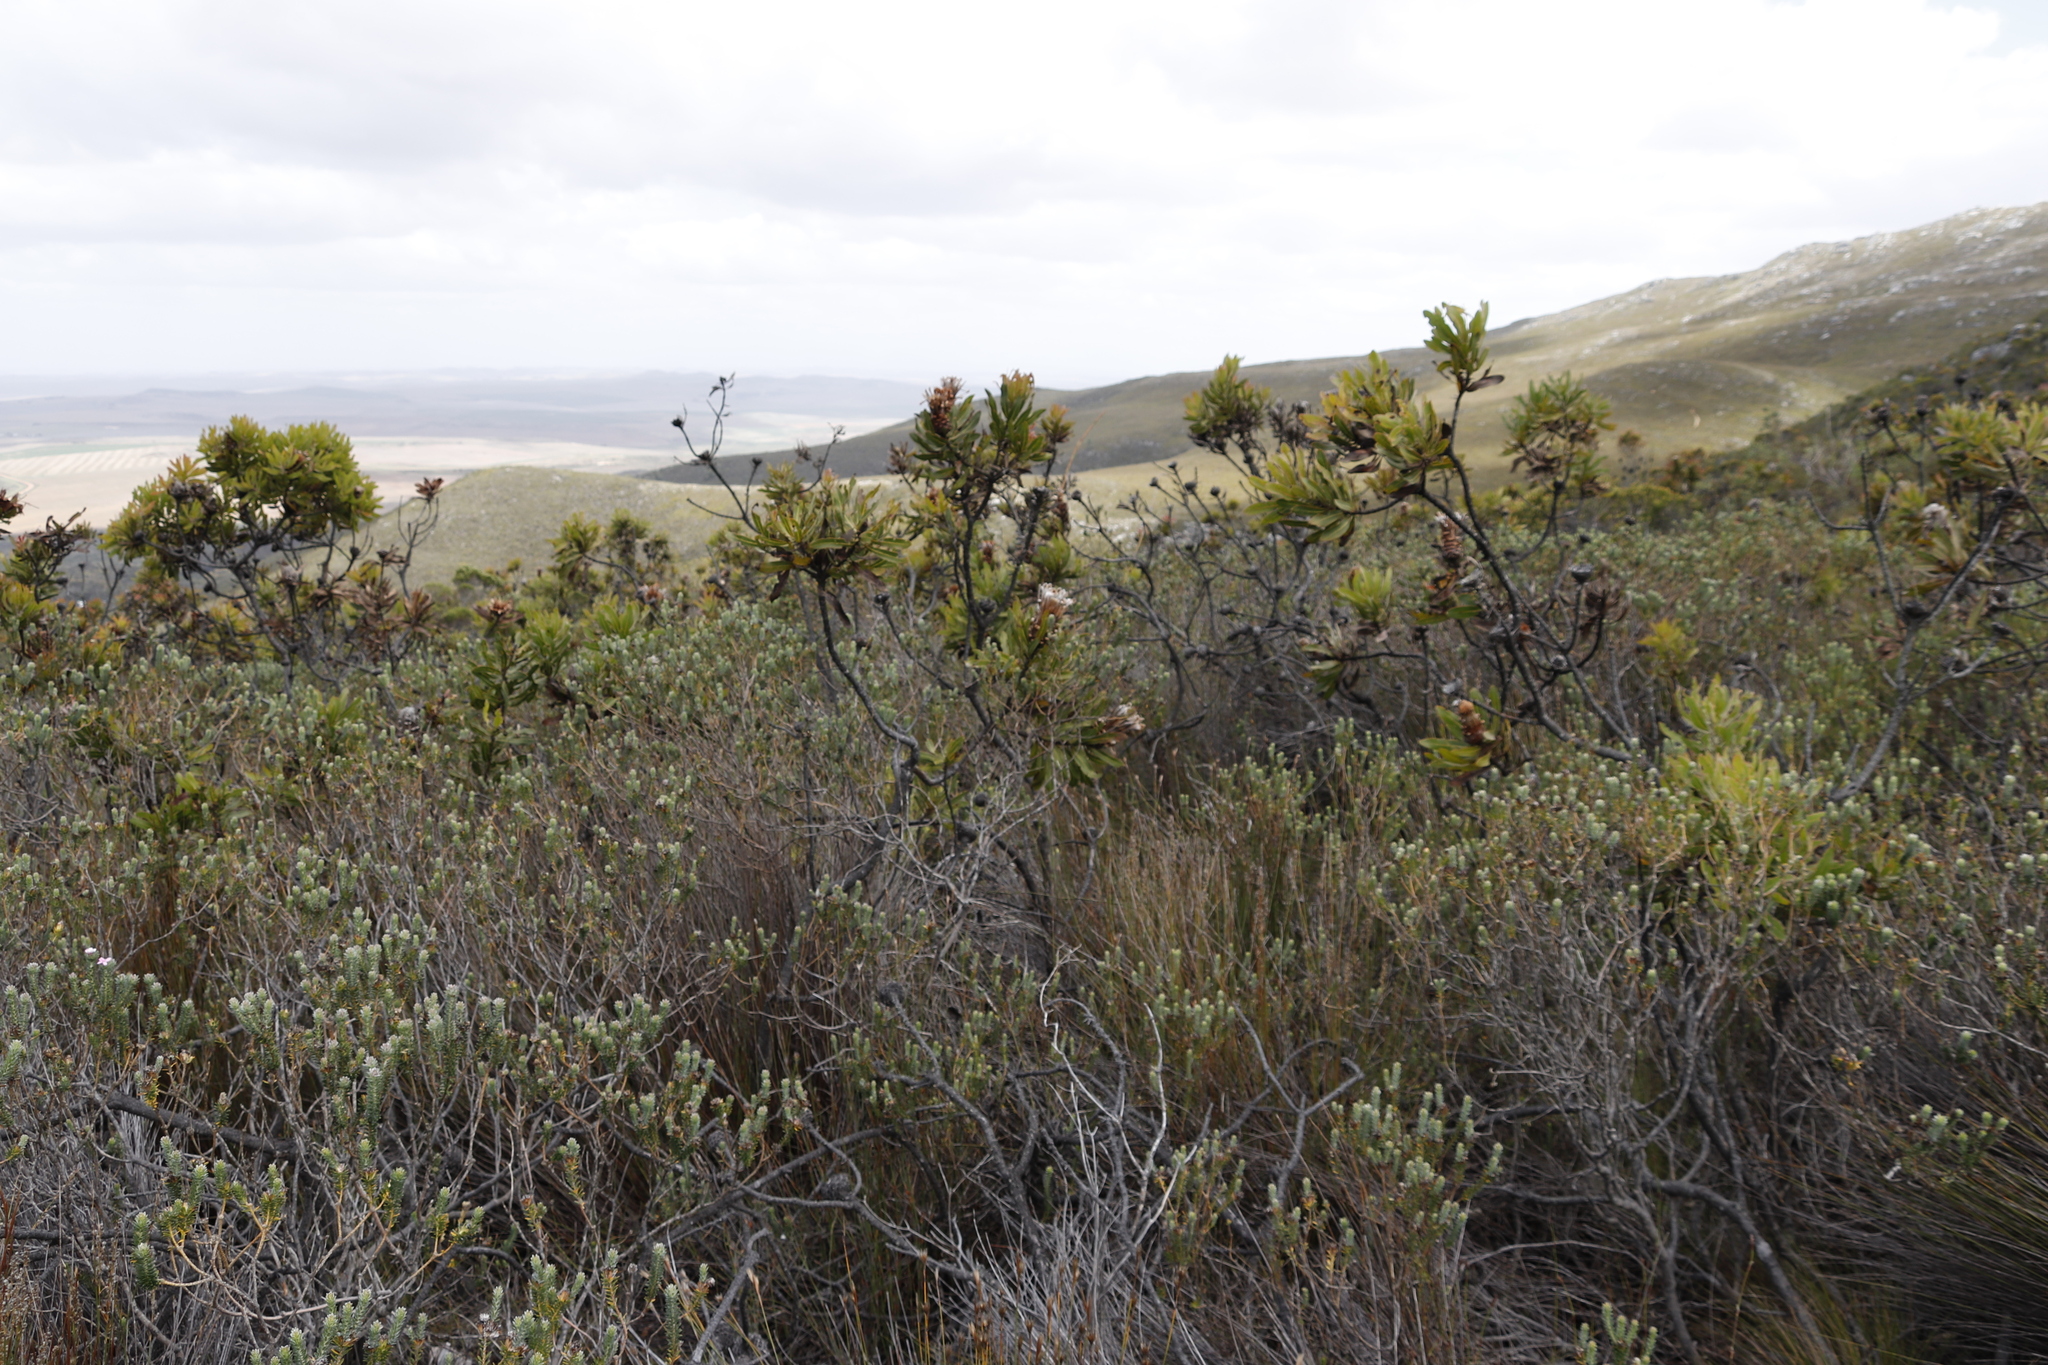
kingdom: Plantae
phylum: Tracheophyta
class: Magnoliopsida
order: Proteales
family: Proteaceae
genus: Protea
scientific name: Protea neriifolia
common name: Blue sugarbush
